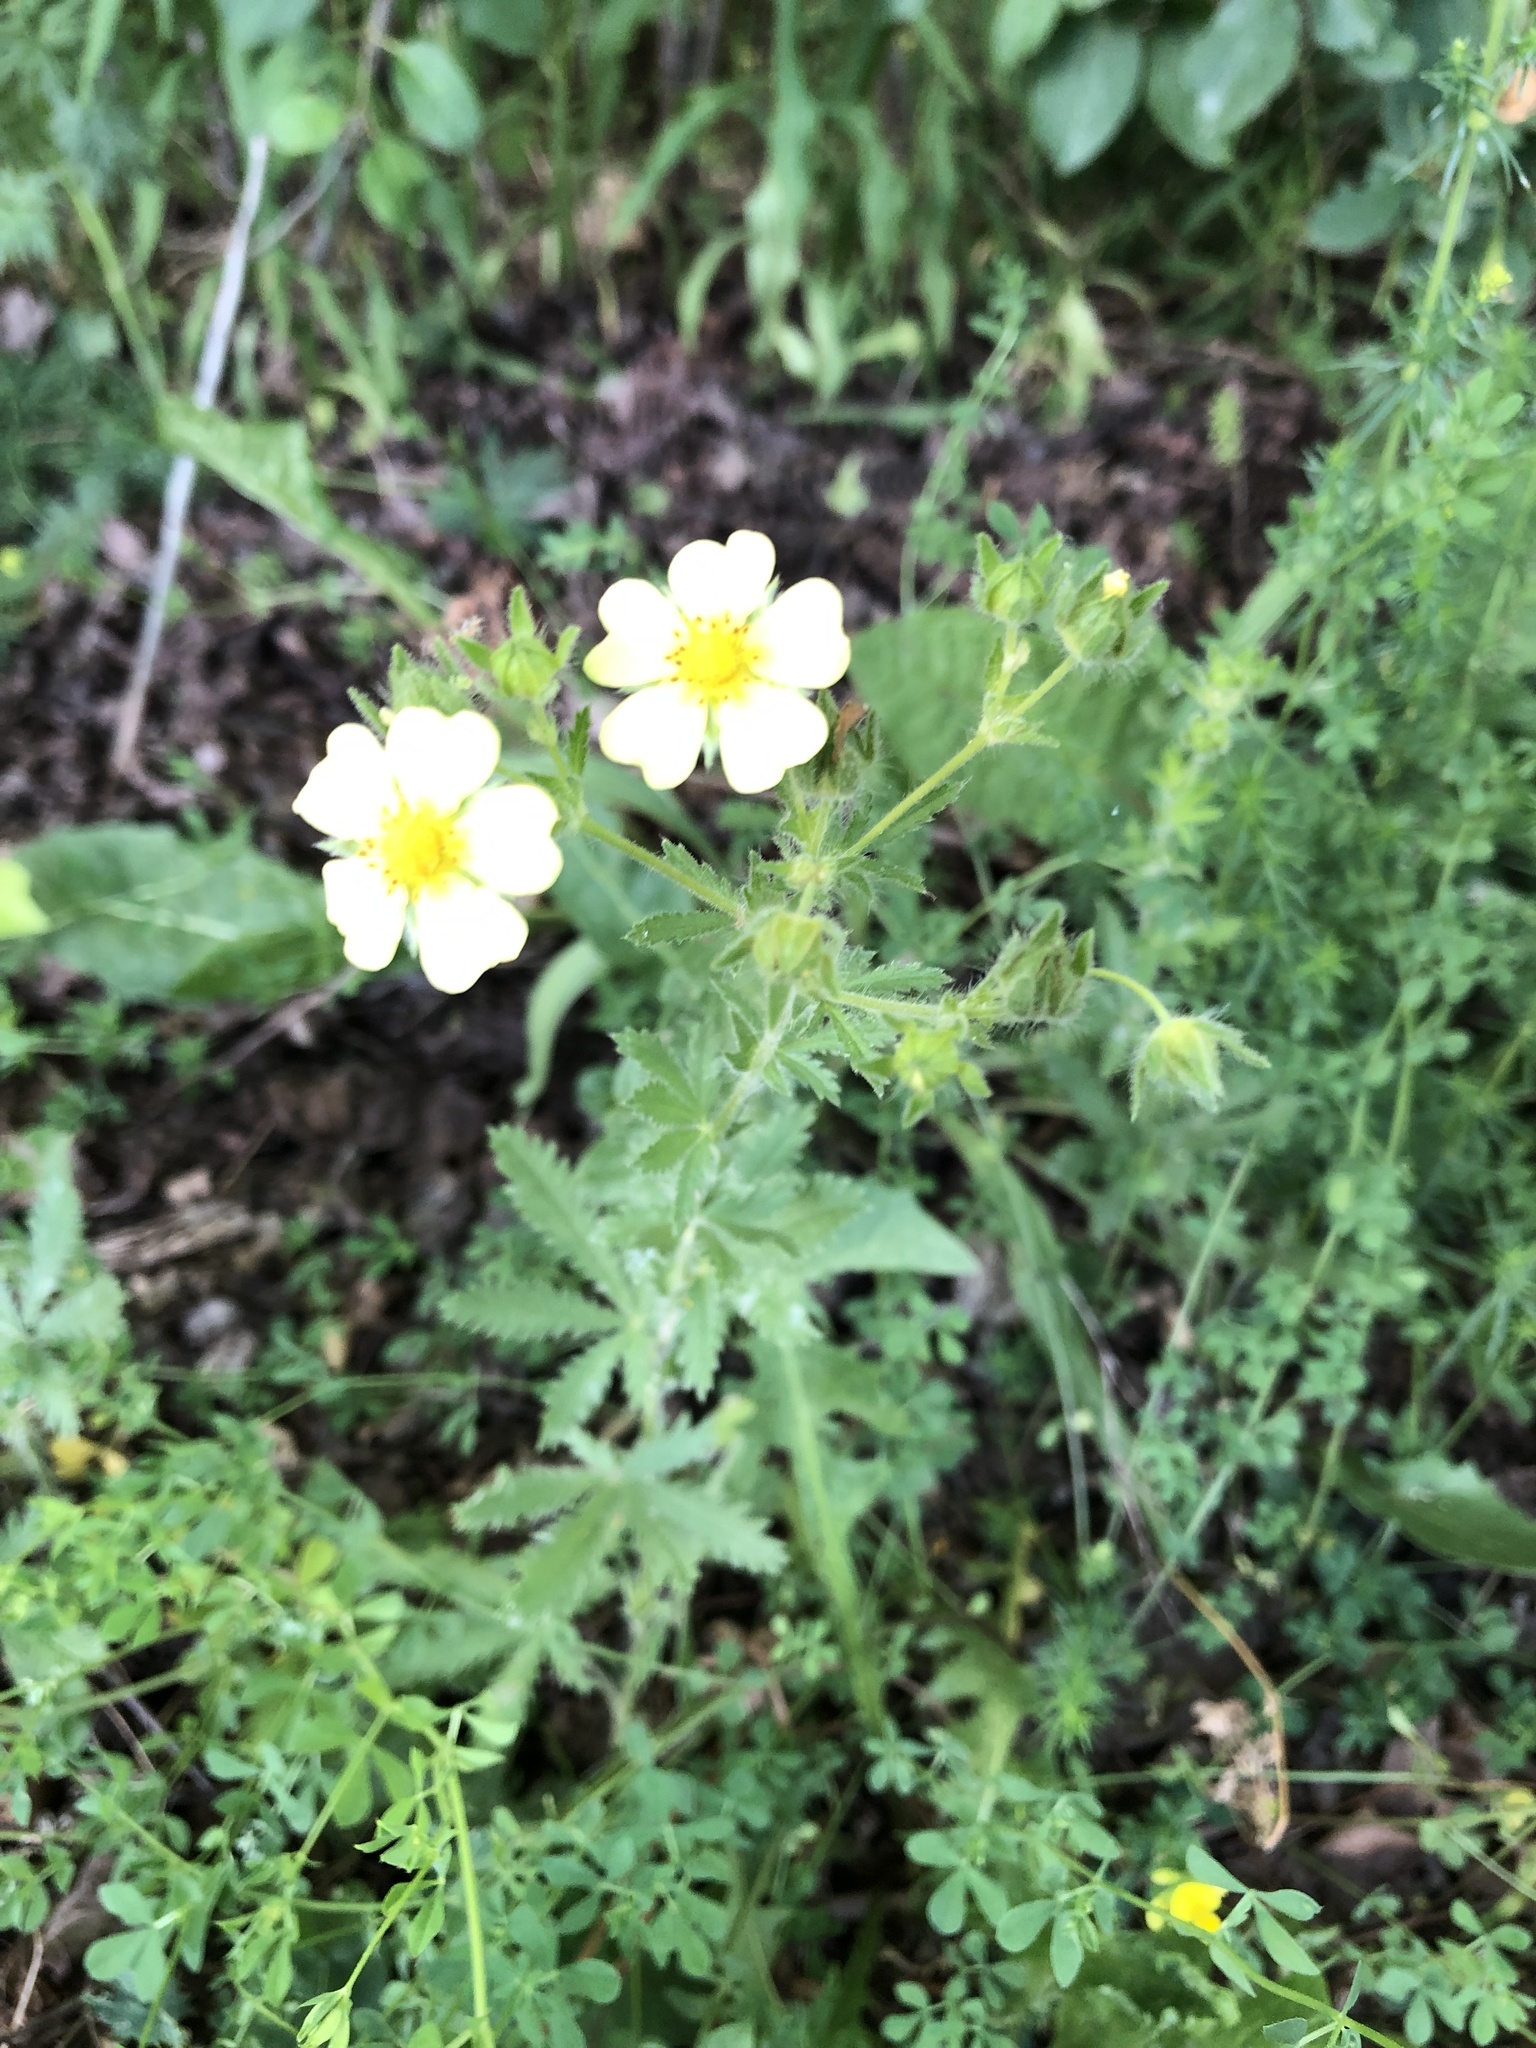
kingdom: Plantae
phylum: Tracheophyta
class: Magnoliopsida
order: Rosales
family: Rosaceae
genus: Potentilla
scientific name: Potentilla recta
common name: Sulphur cinquefoil
